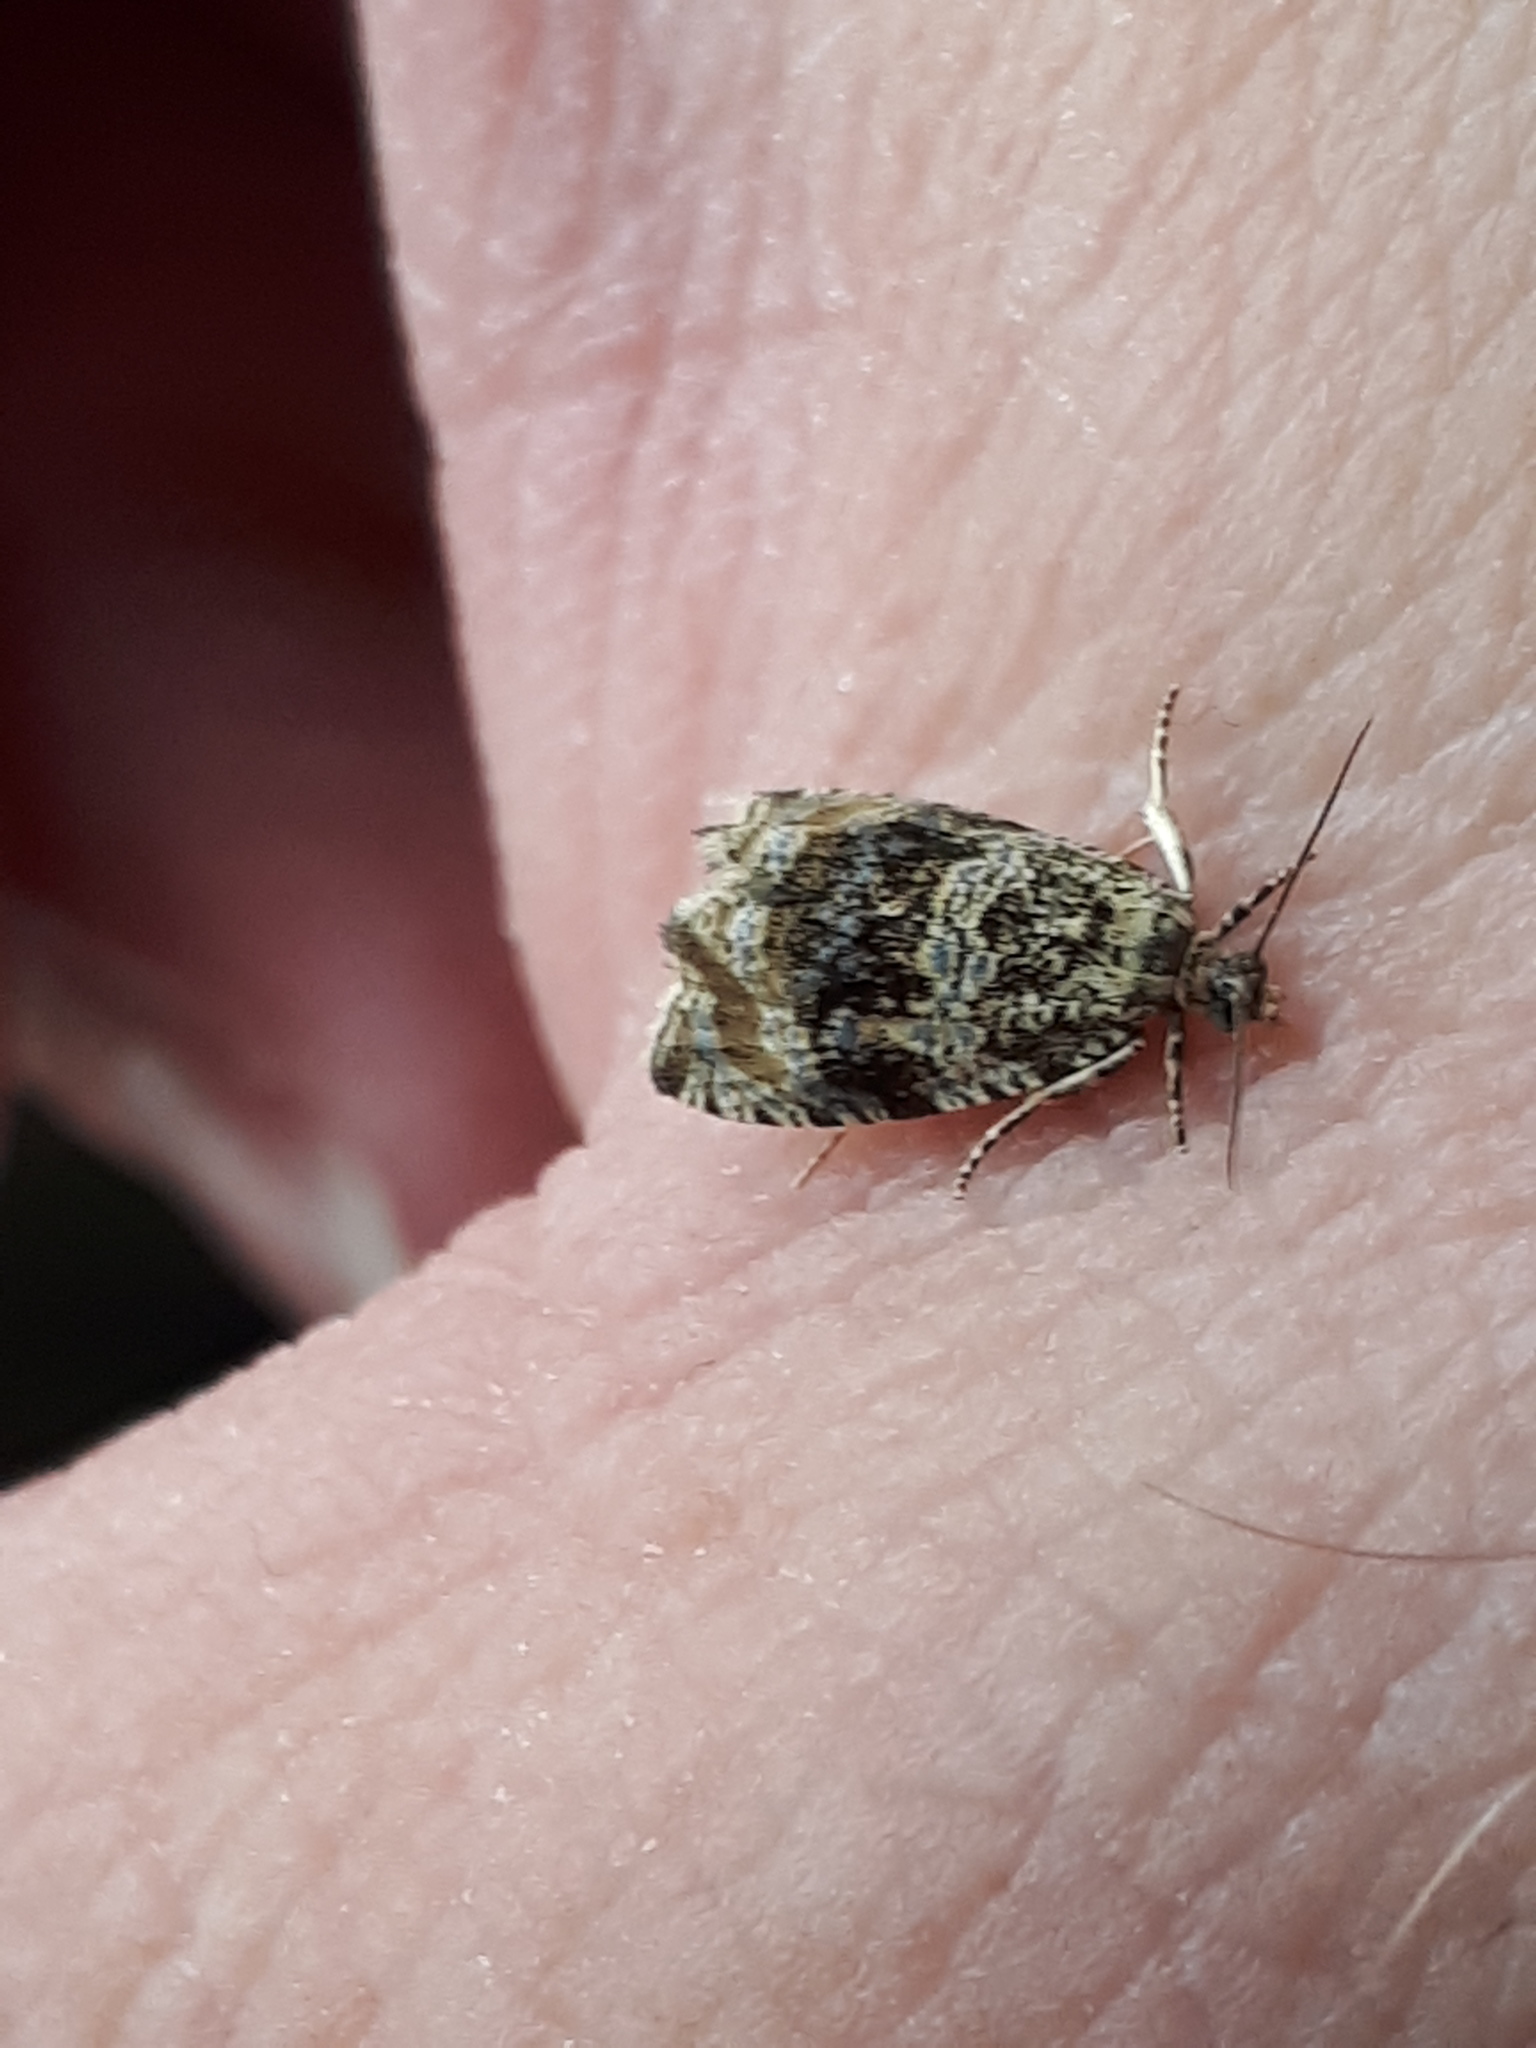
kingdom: Animalia
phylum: Arthropoda
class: Insecta
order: Lepidoptera
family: Tortricidae
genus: Syricoris
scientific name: Syricoris lacunana
